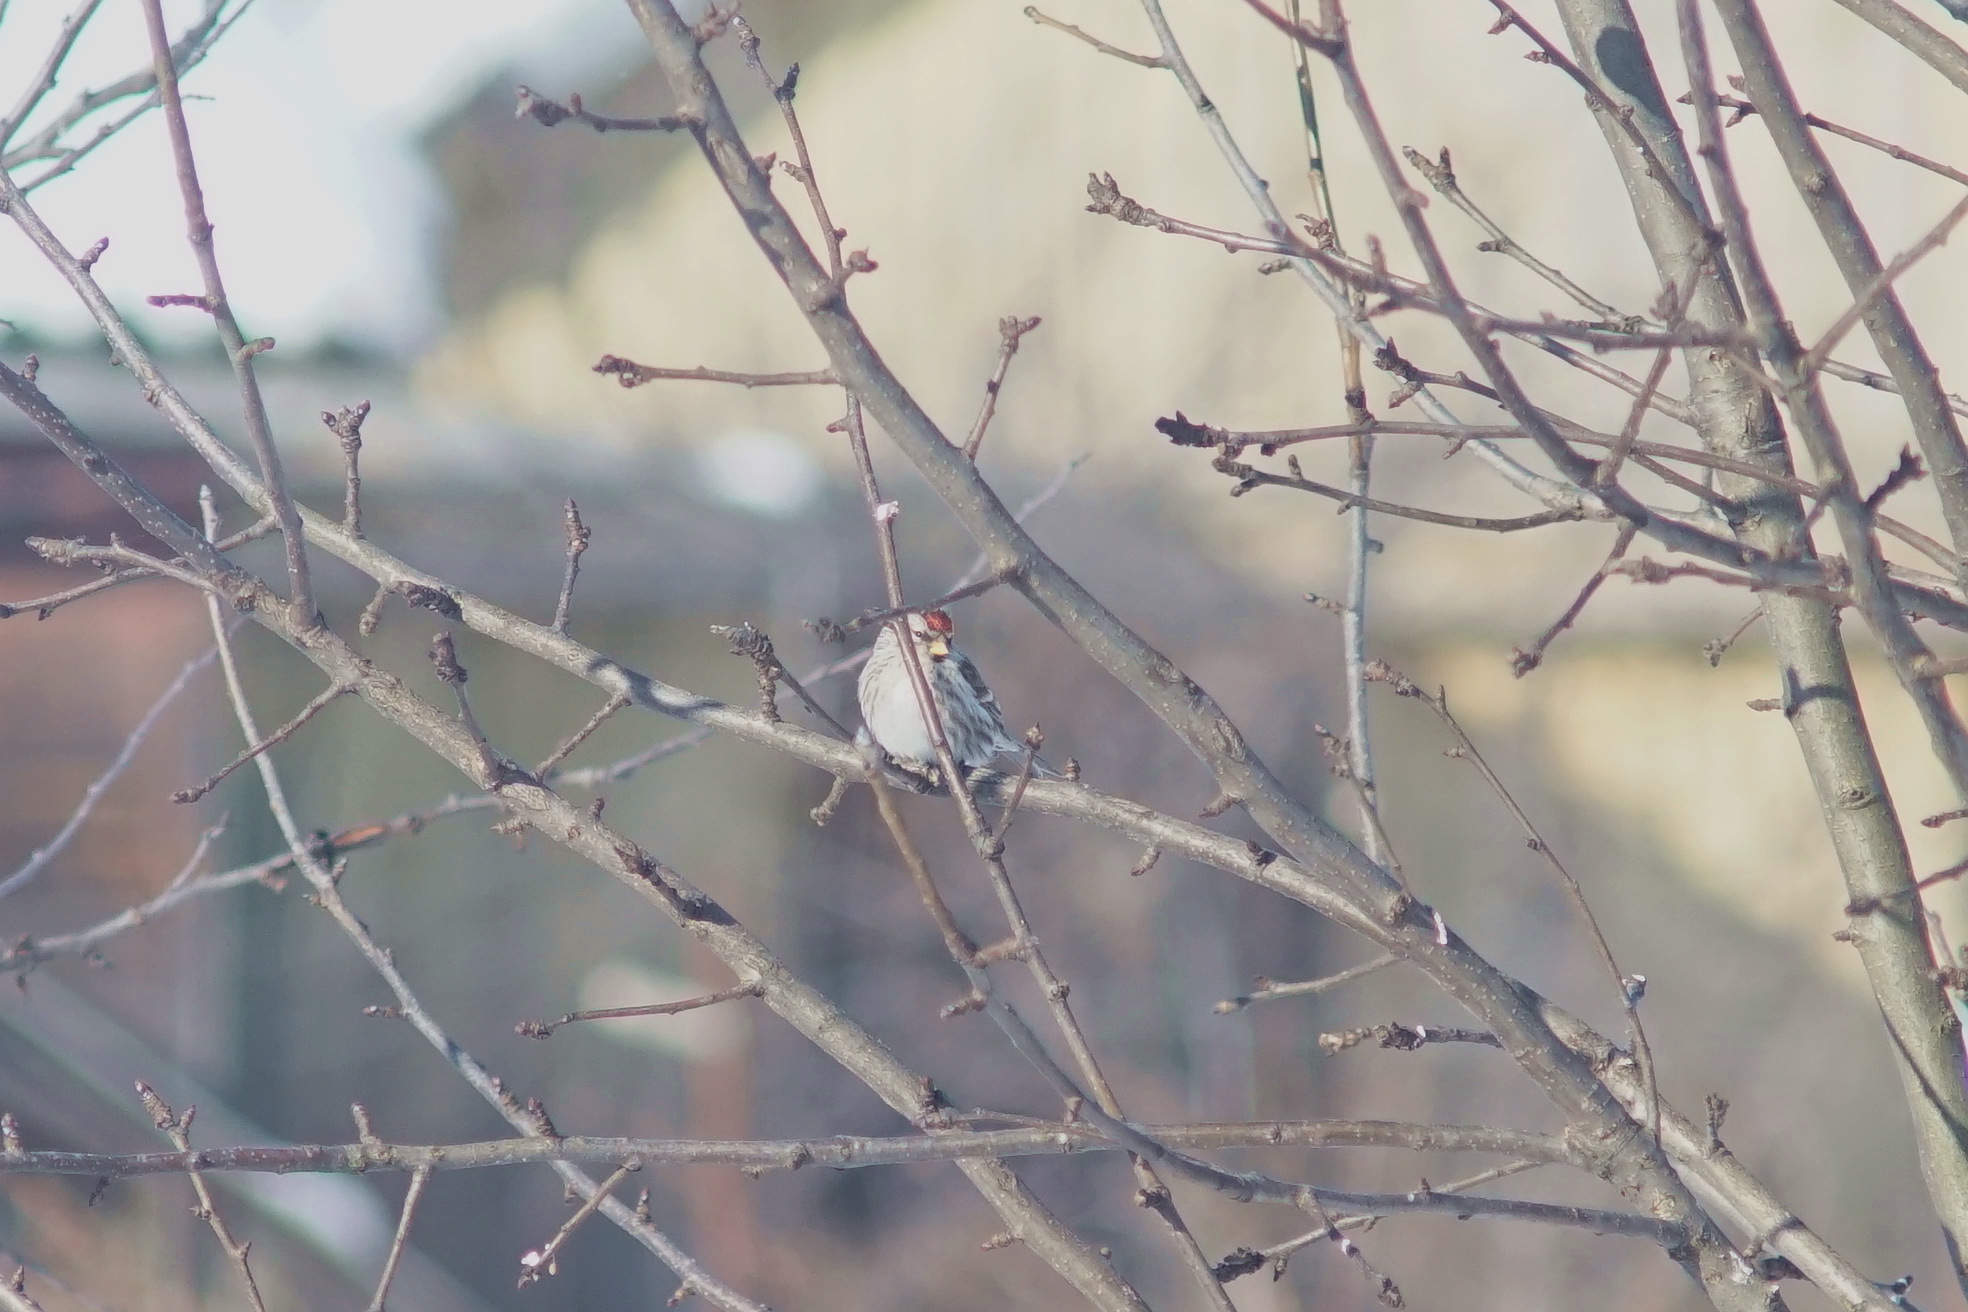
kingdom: Animalia
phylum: Chordata
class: Aves
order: Passeriformes
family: Fringillidae
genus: Acanthis
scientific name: Acanthis hornemanni
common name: Arctic redpoll
